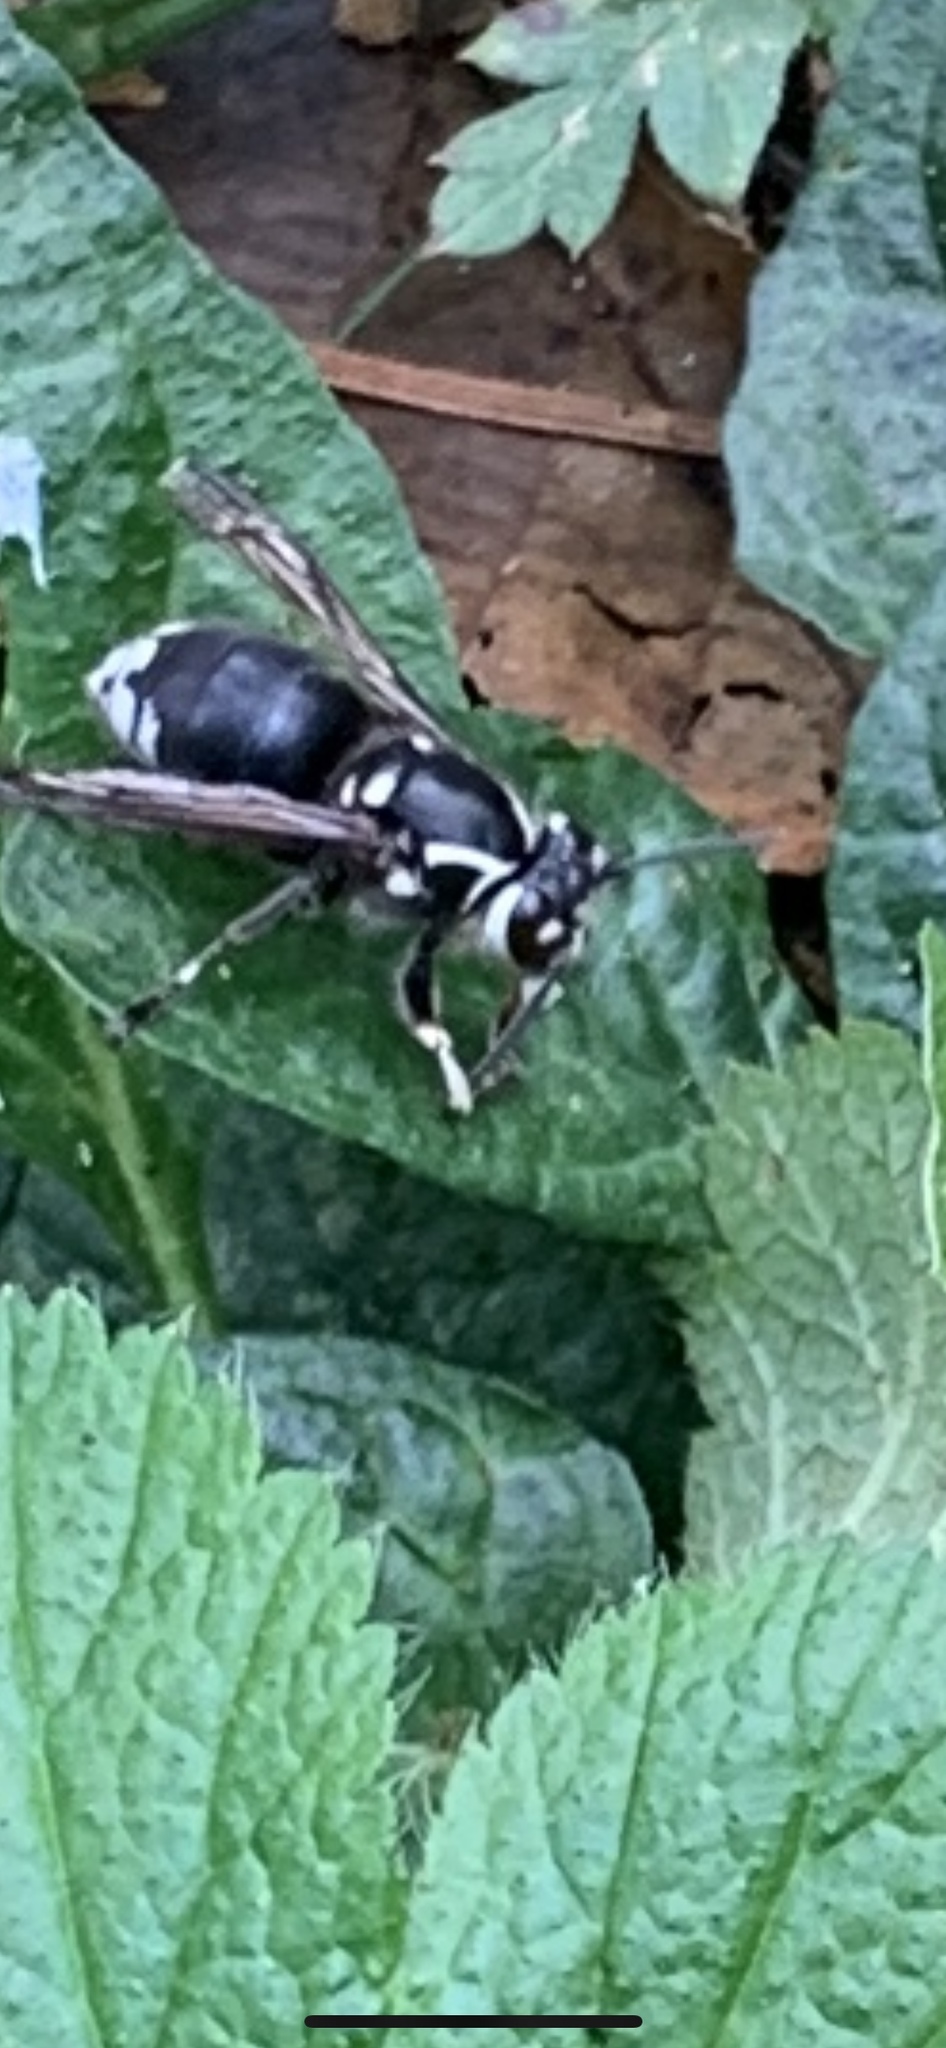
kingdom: Animalia
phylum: Arthropoda
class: Insecta
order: Hymenoptera
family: Vespidae
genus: Dolichovespula
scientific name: Dolichovespula maculata
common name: Bald-faced hornet
